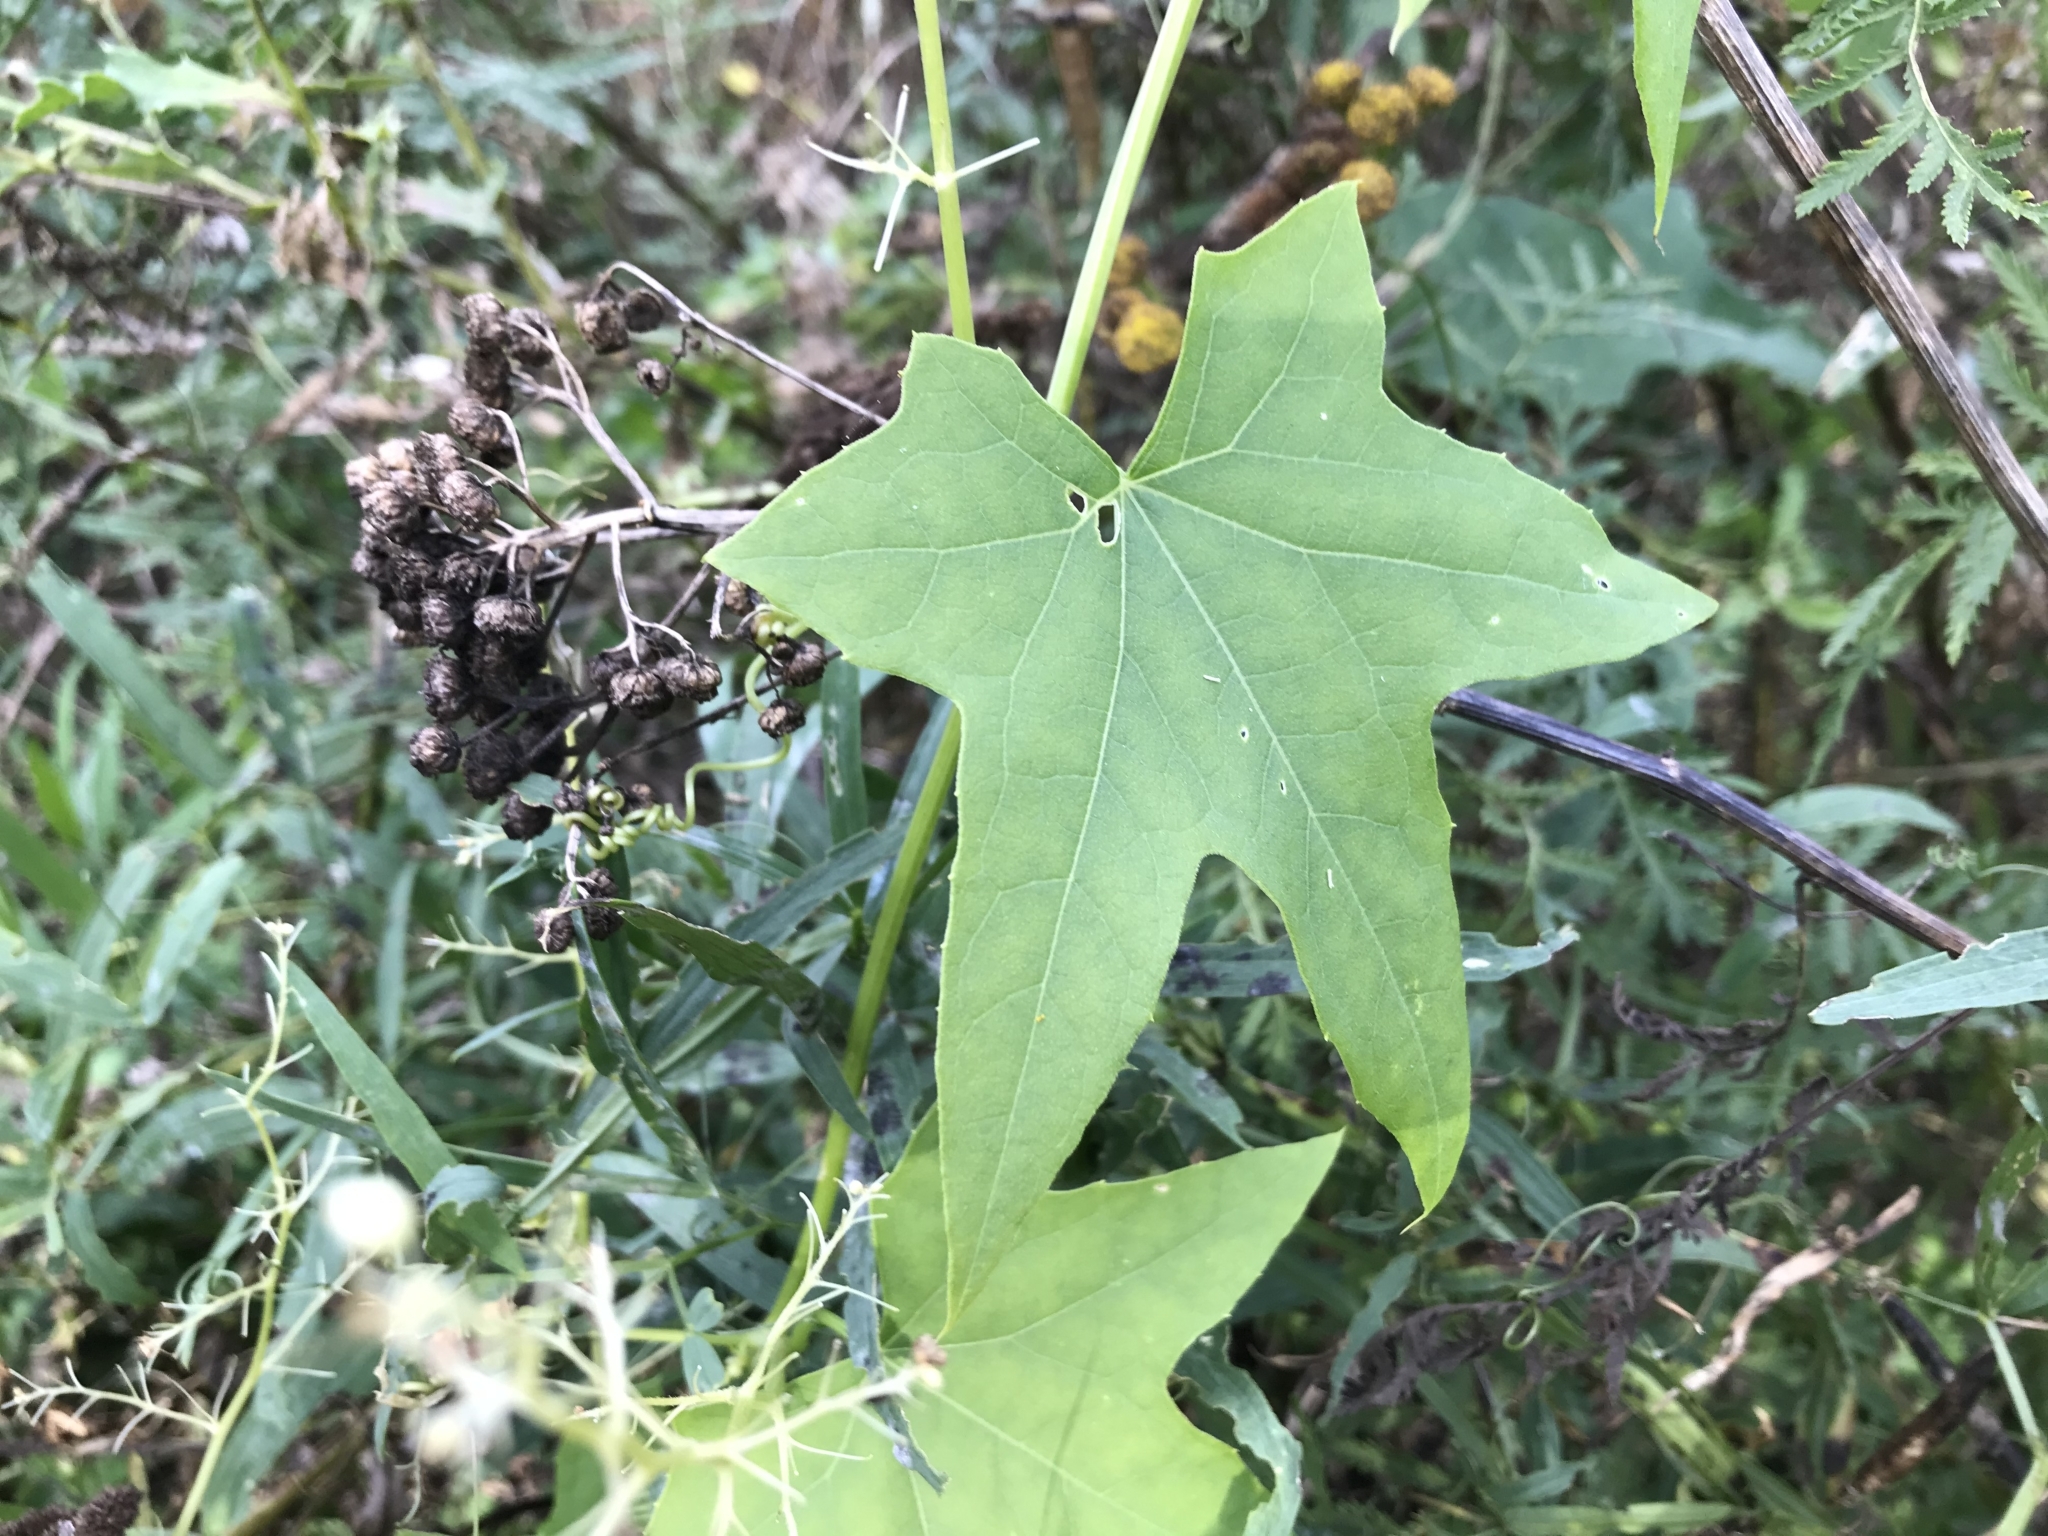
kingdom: Plantae
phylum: Tracheophyta
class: Magnoliopsida
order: Cucurbitales
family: Cucurbitaceae
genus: Echinocystis
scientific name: Echinocystis lobata
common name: Wild cucumber
